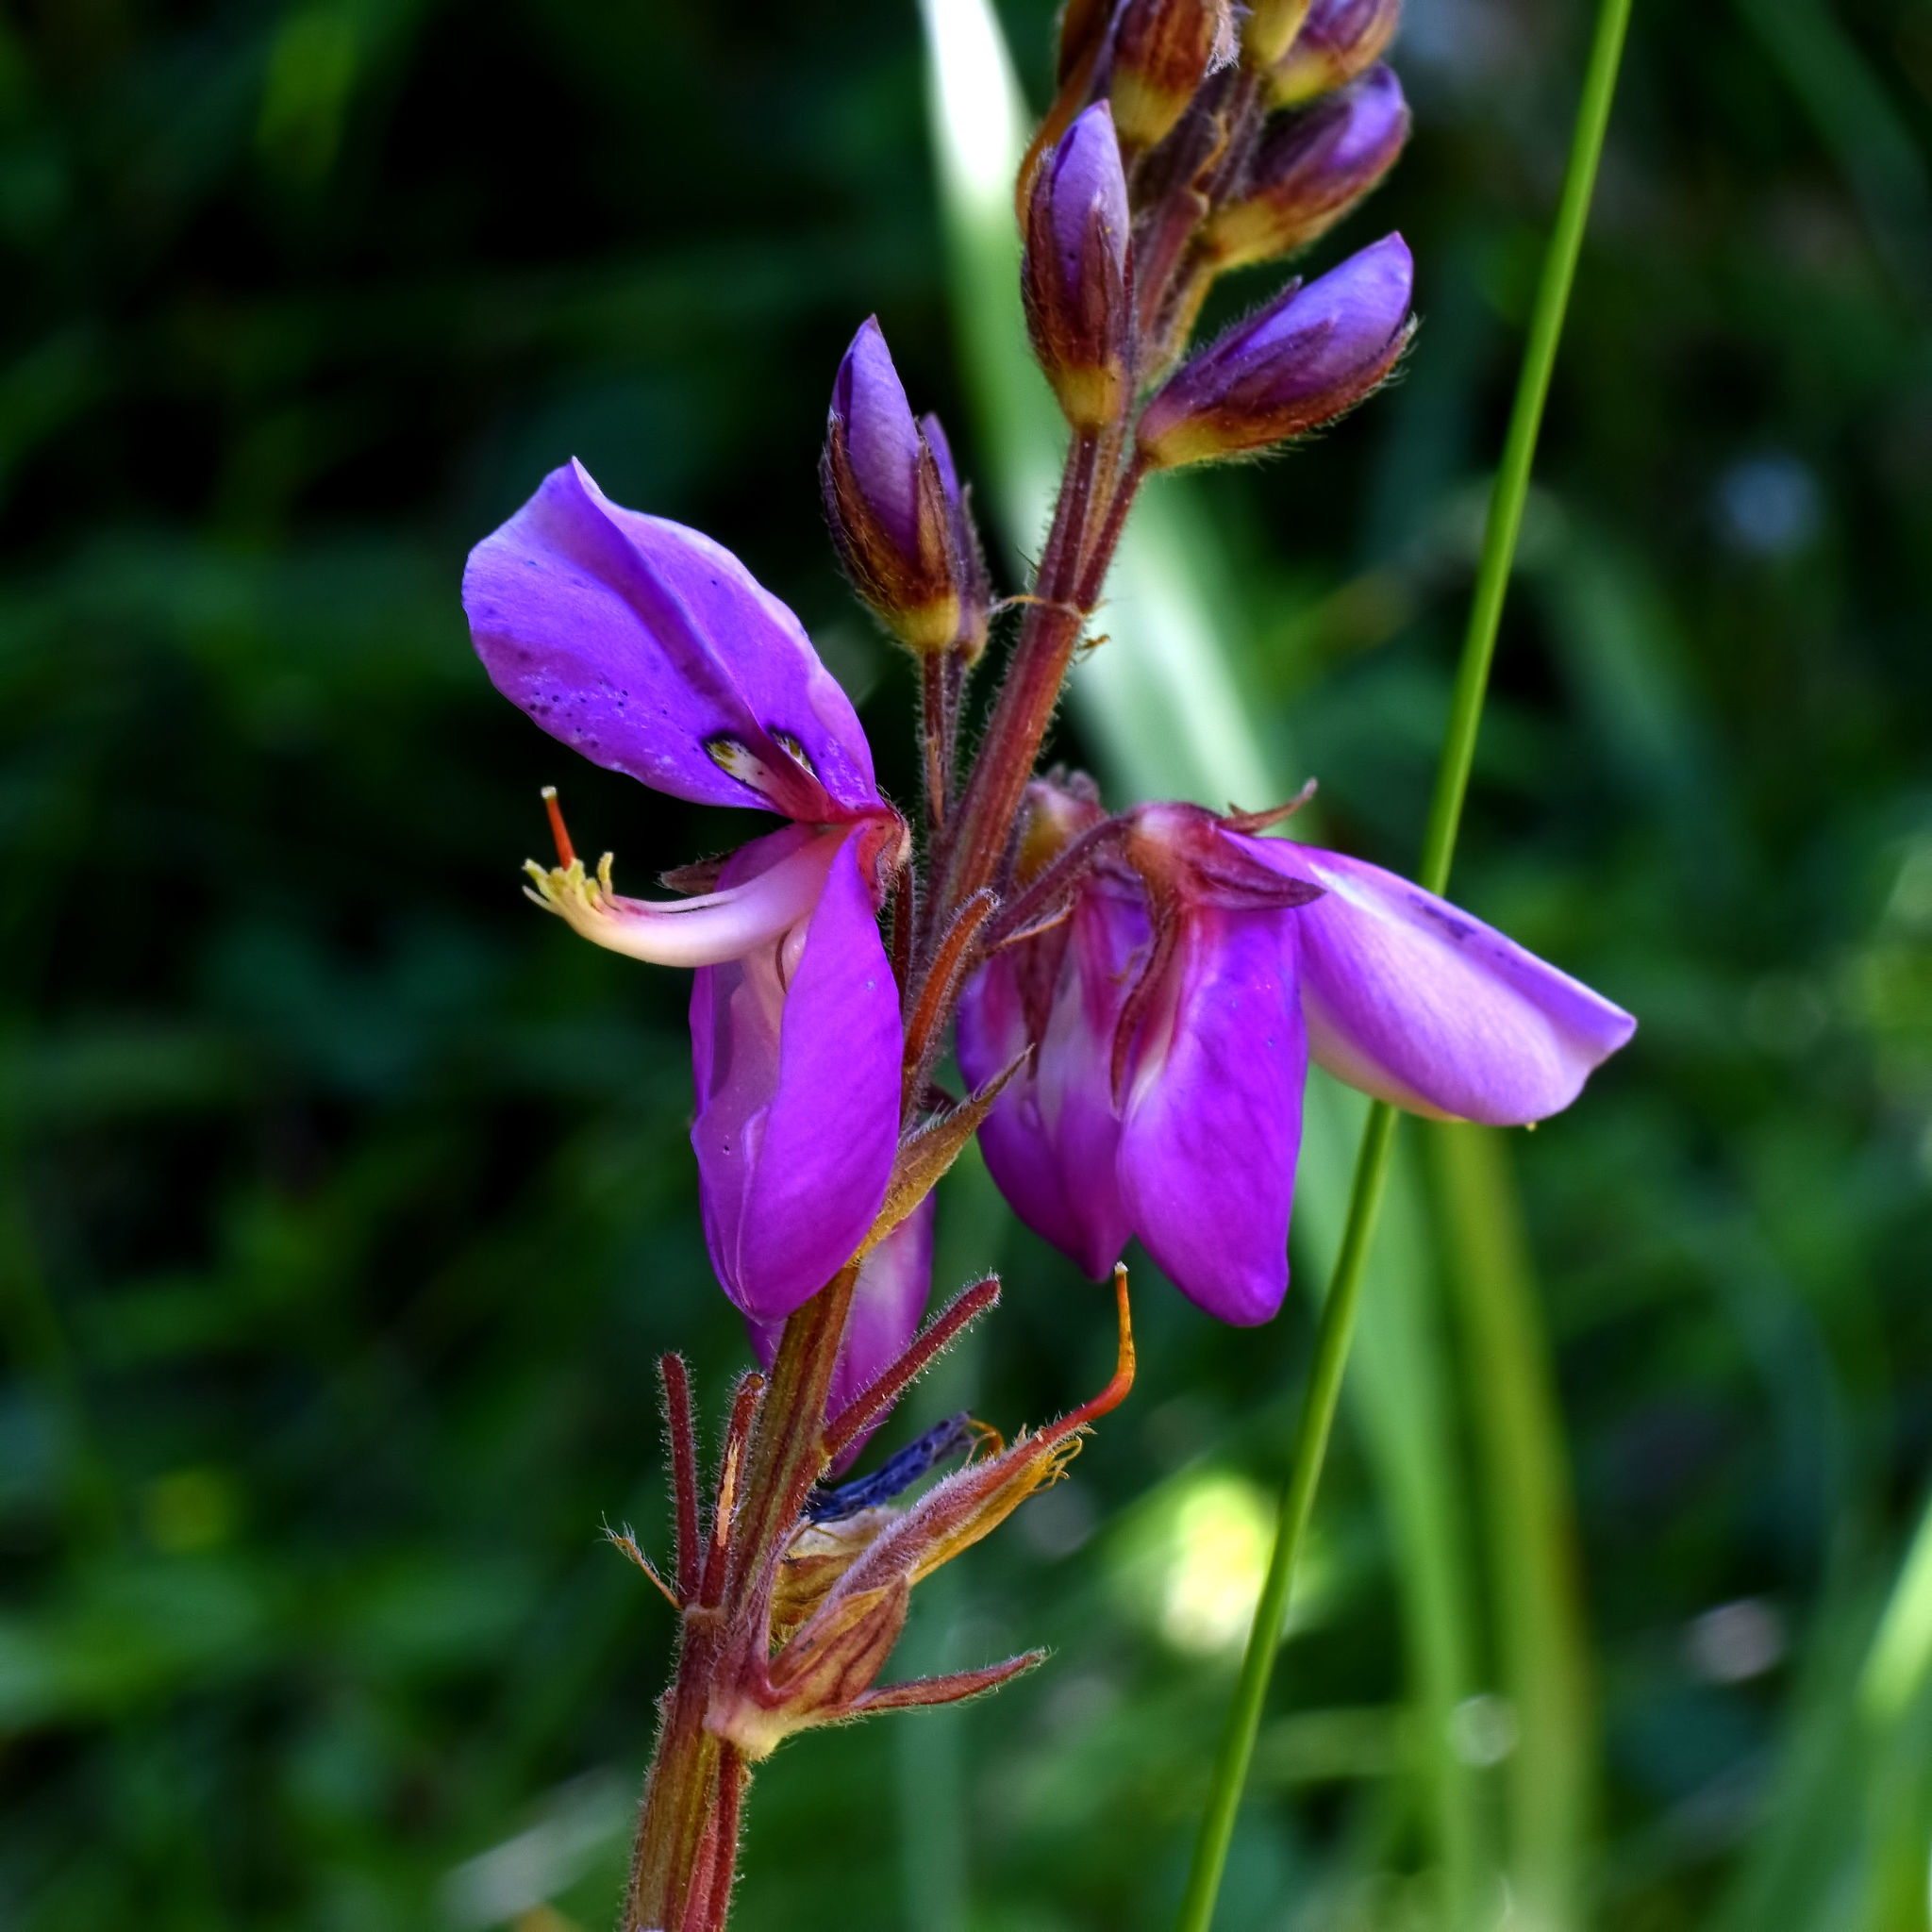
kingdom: Plantae
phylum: Tracheophyta
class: Magnoliopsida
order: Fabales
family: Fabaceae
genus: Desmodium
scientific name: Desmodium canadense
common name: Canada tick-trefoil
